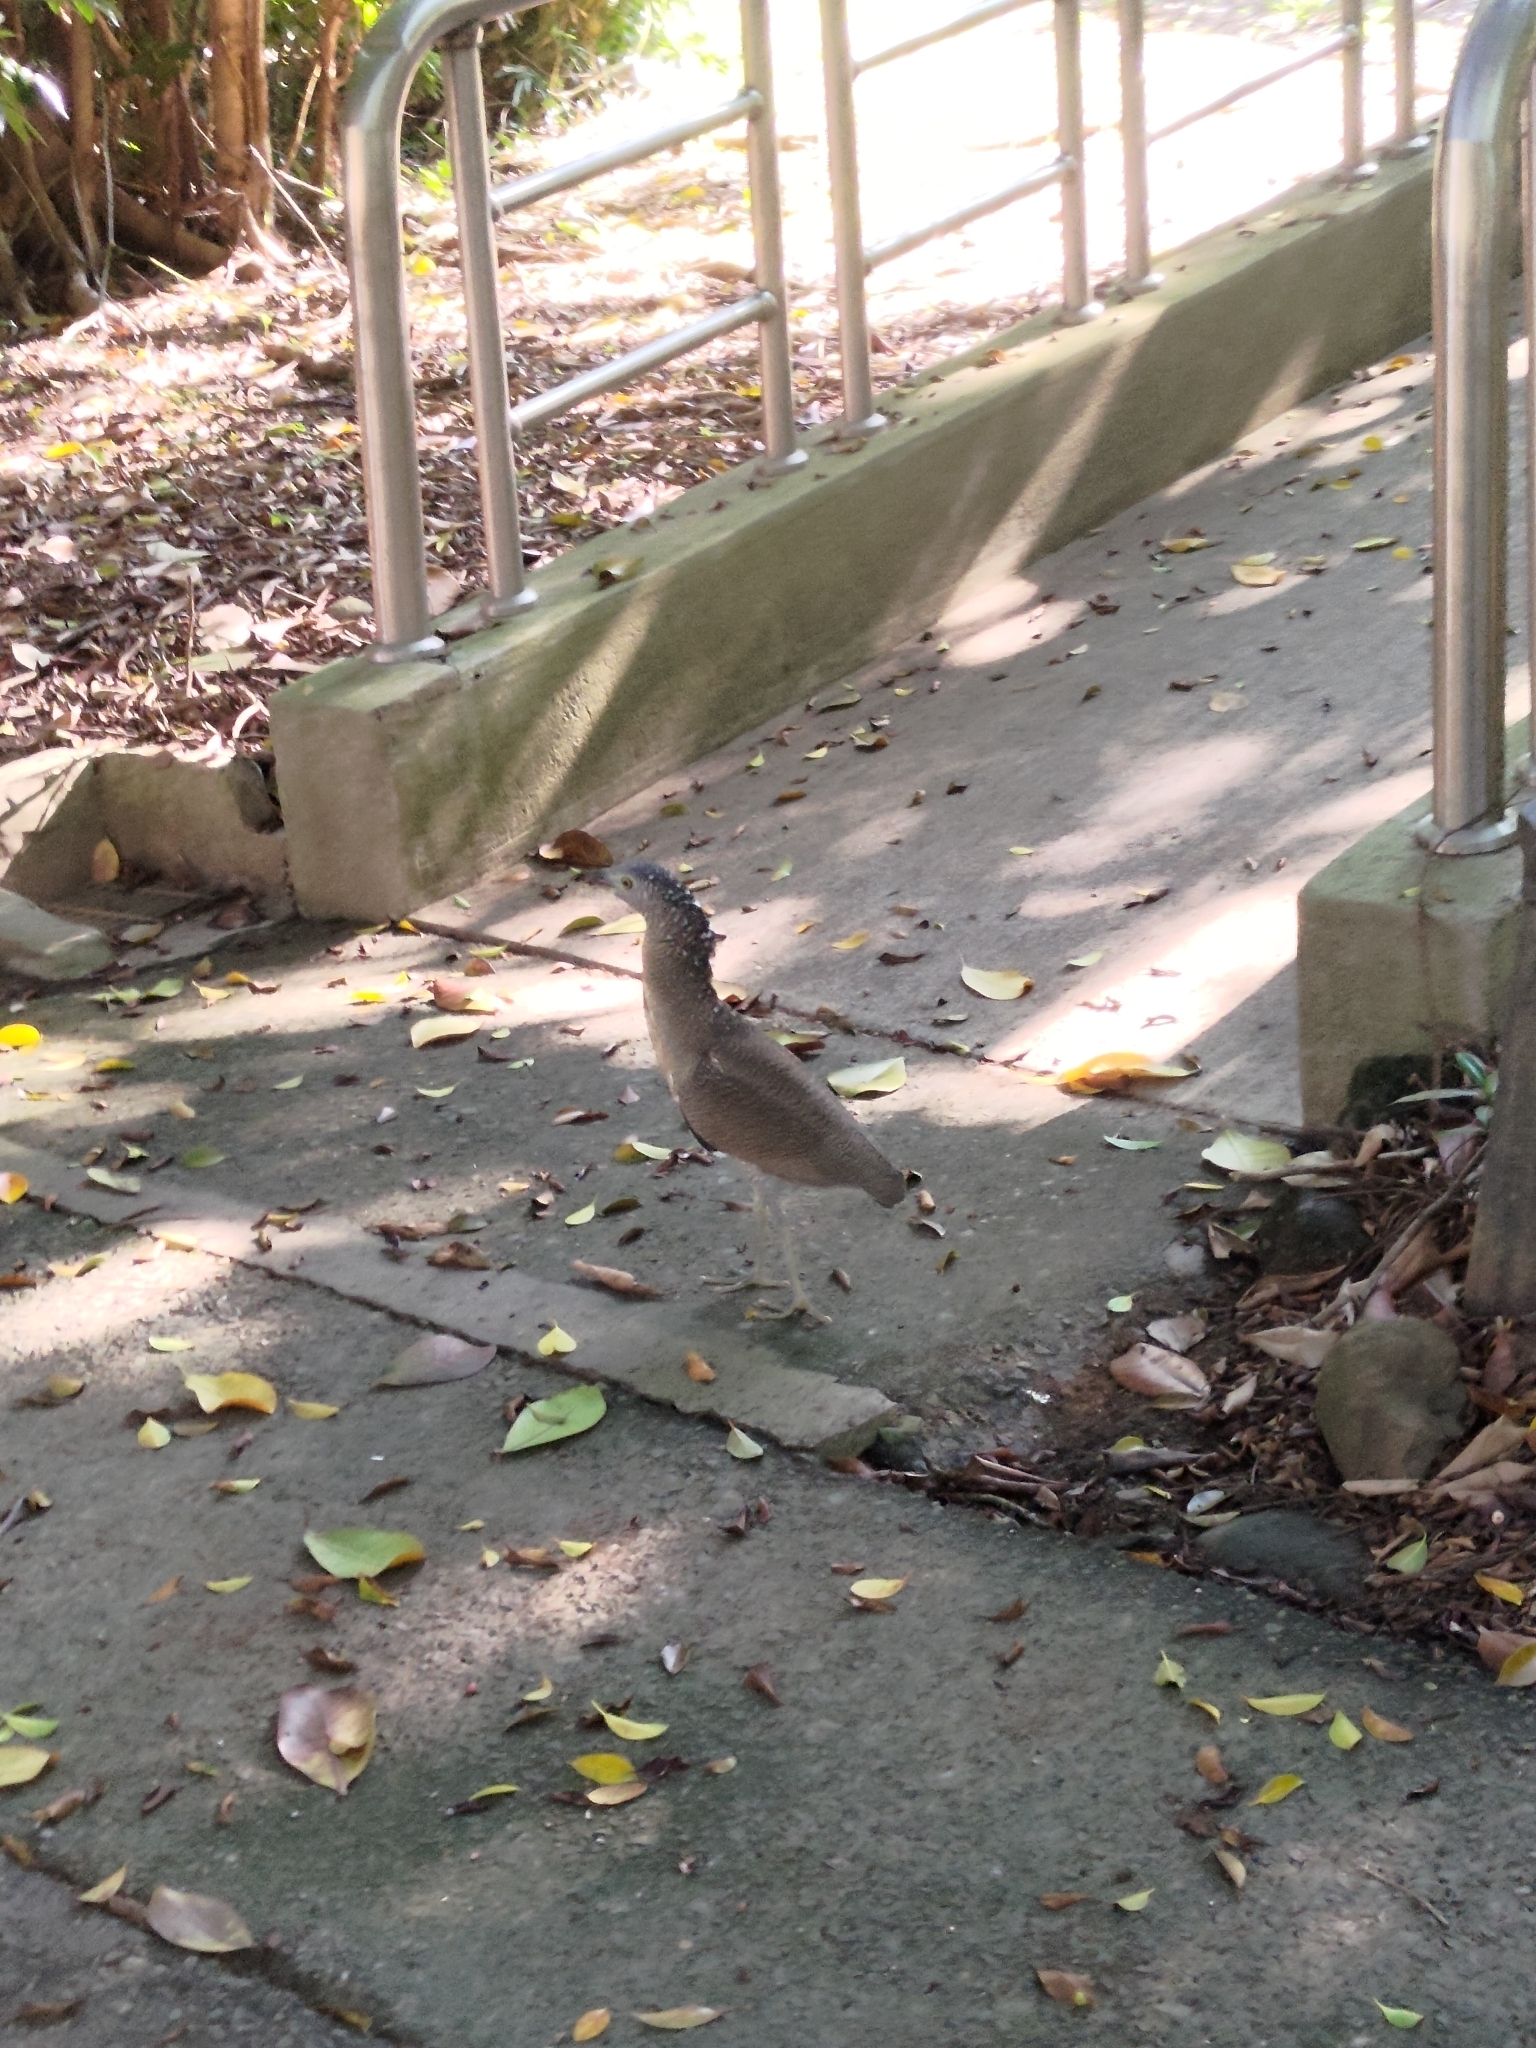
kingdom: Animalia
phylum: Chordata
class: Aves
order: Pelecaniformes
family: Ardeidae
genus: Gorsachius
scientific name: Gorsachius melanolophus
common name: Malayan night heron
